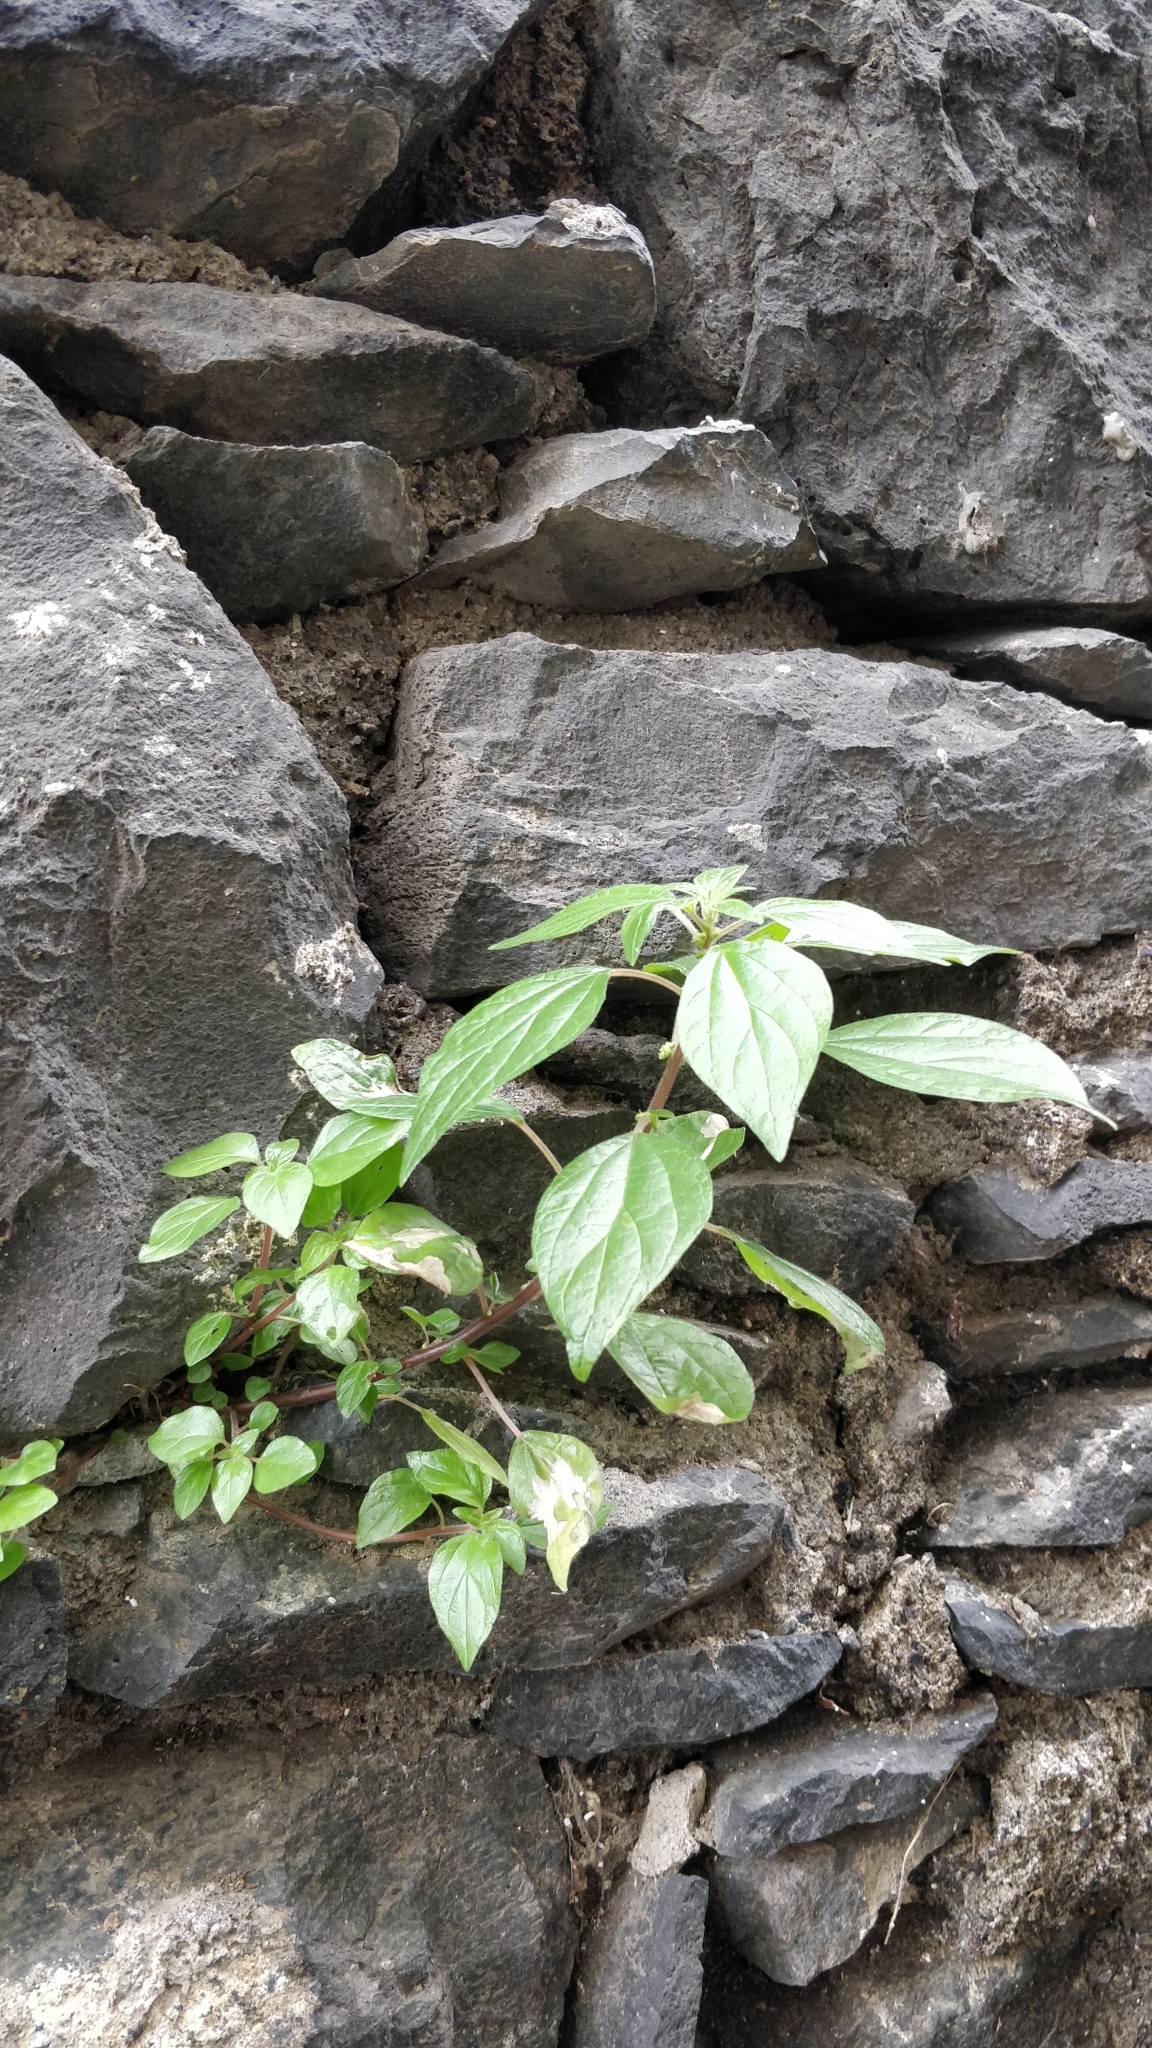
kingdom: Plantae
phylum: Tracheophyta
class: Magnoliopsida
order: Rosales
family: Urticaceae
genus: Parietaria
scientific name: Parietaria judaica
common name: Pellitory-of-the-wall
